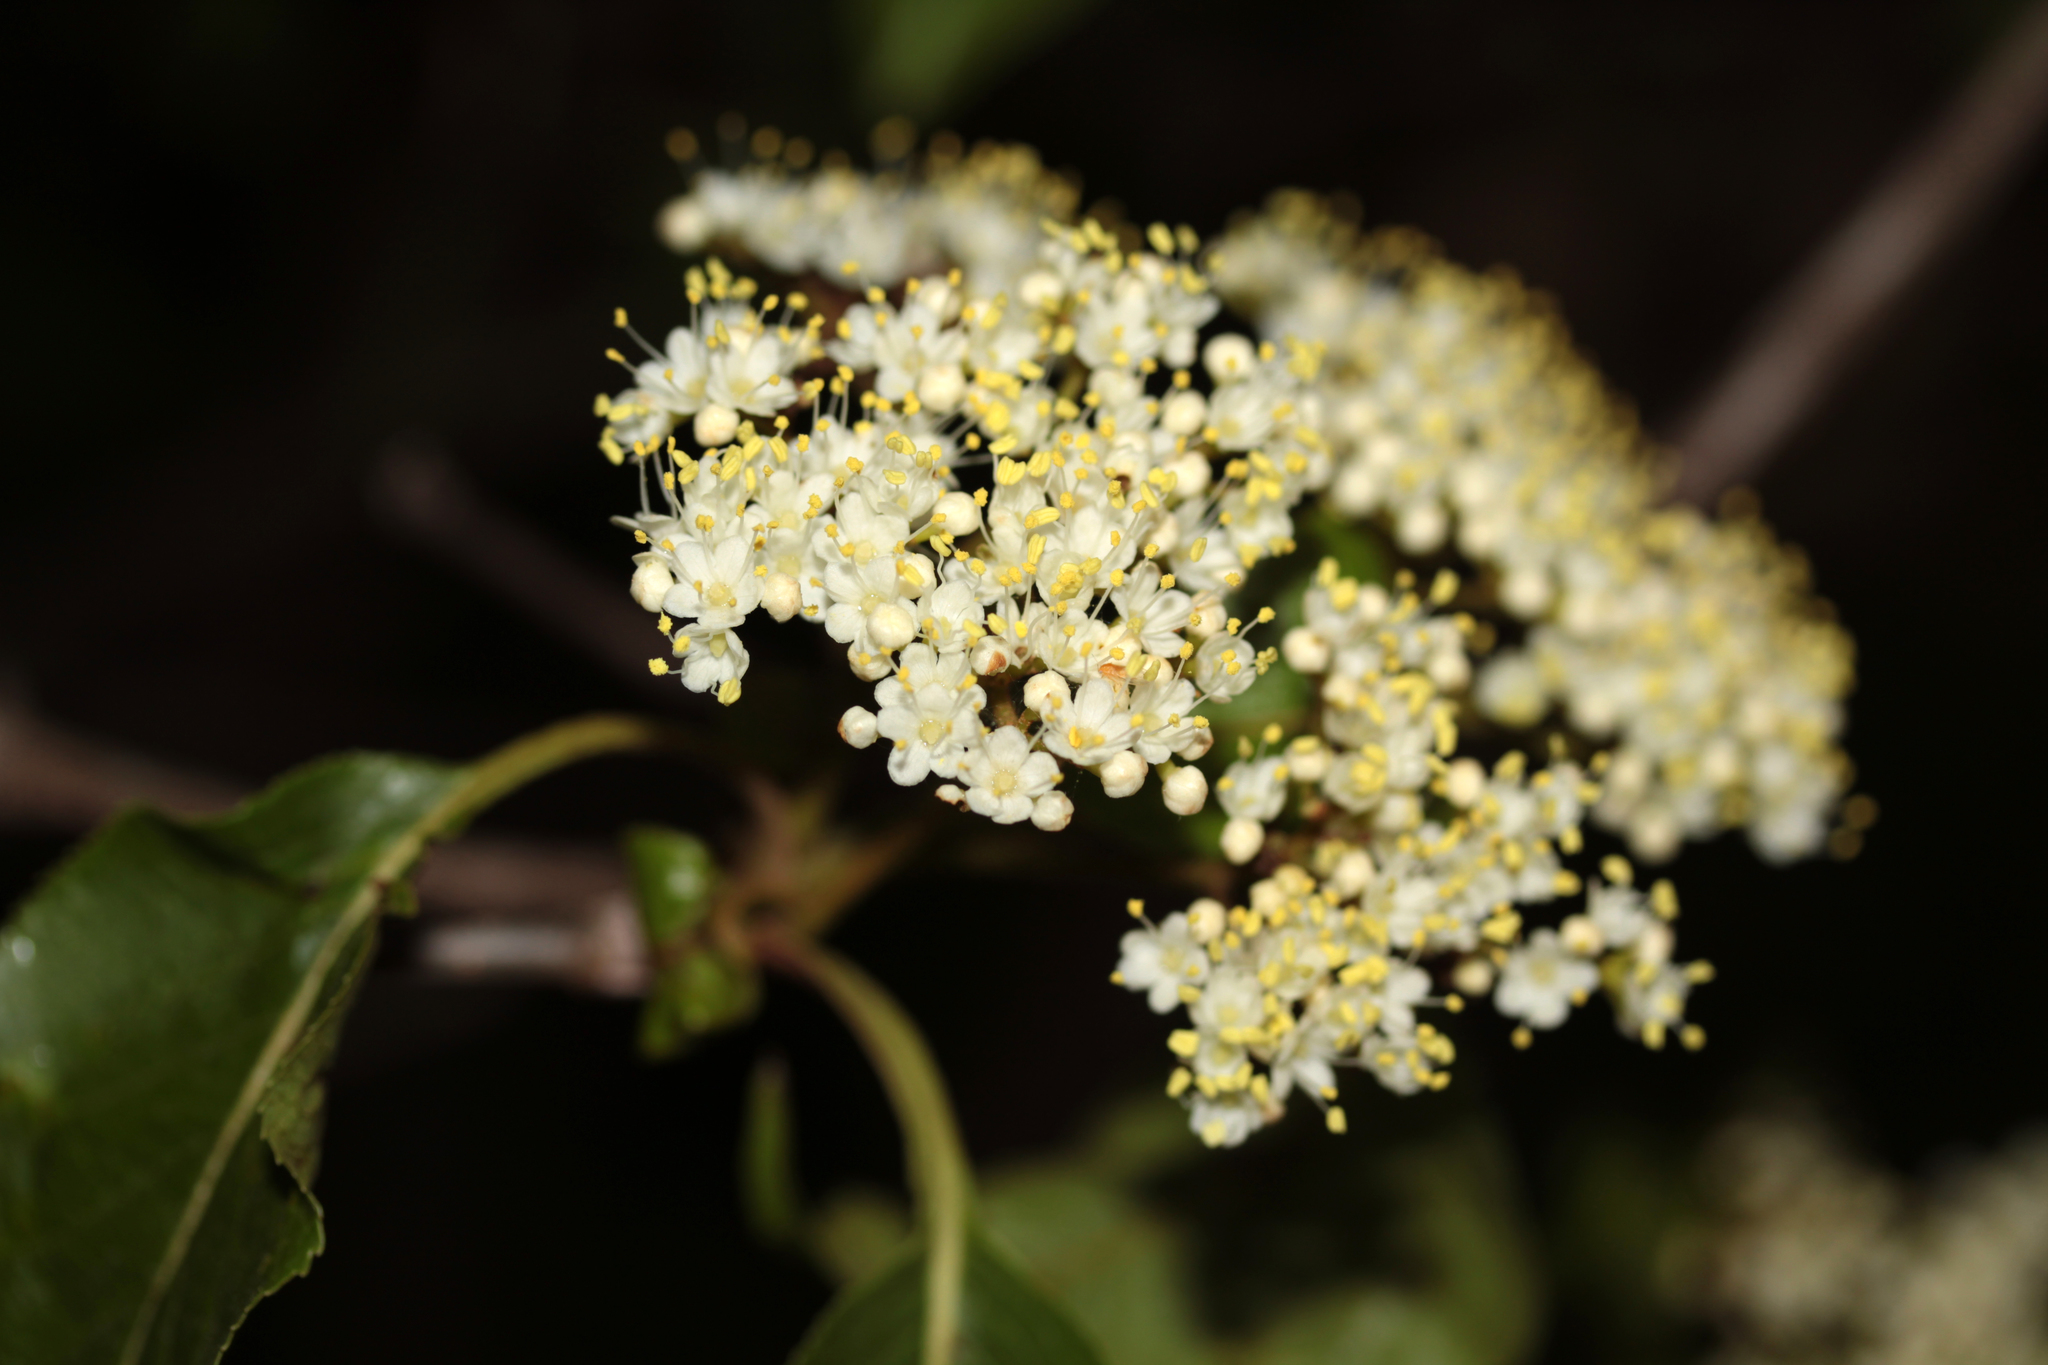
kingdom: Plantae
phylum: Tracheophyta
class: Magnoliopsida
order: Dipsacales
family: Viburnaceae
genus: Viburnum
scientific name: Viburnum lentago
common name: Black haw
